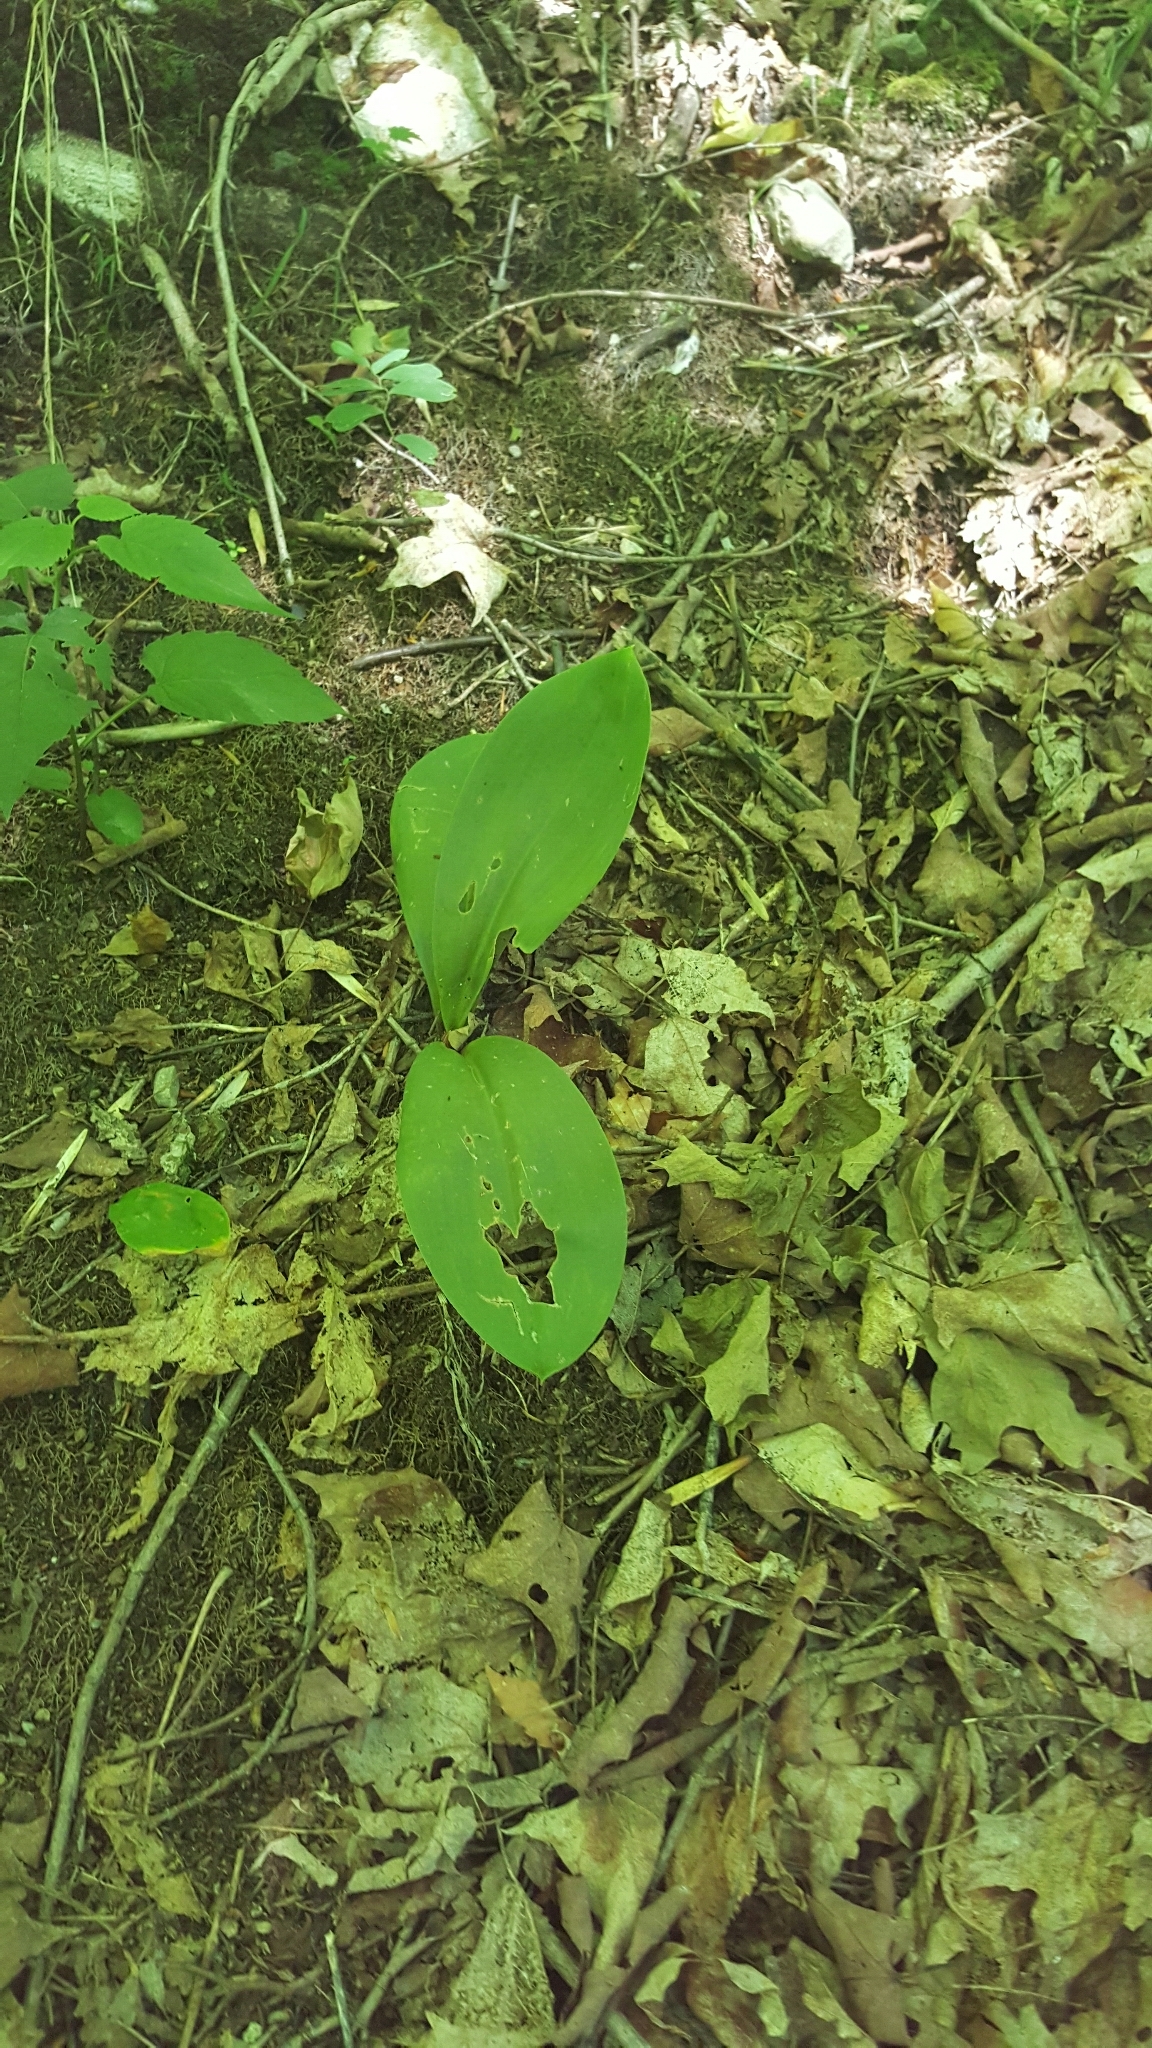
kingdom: Plantae
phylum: Tracheophyta
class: Liliopsida
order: Liliales
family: Liliaceae
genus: Clintonia
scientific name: Clintonia borealis
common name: Yellow clintonia
